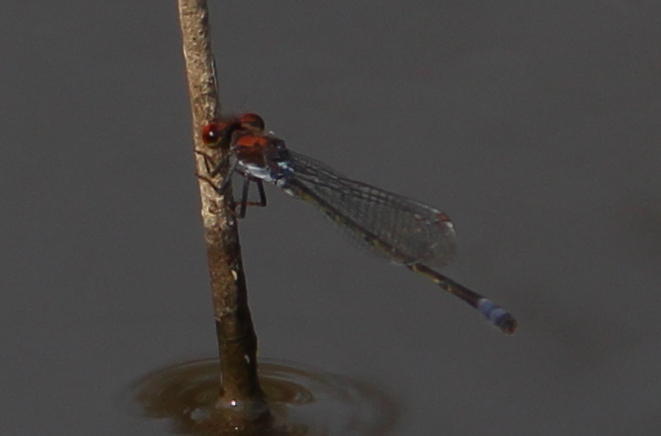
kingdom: Animalia
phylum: Arthropoda
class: Insecta
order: Odonata
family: Coenagrionidae
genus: Pseudagrion
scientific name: Pseudagrion massaicum
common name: Masai sprite
